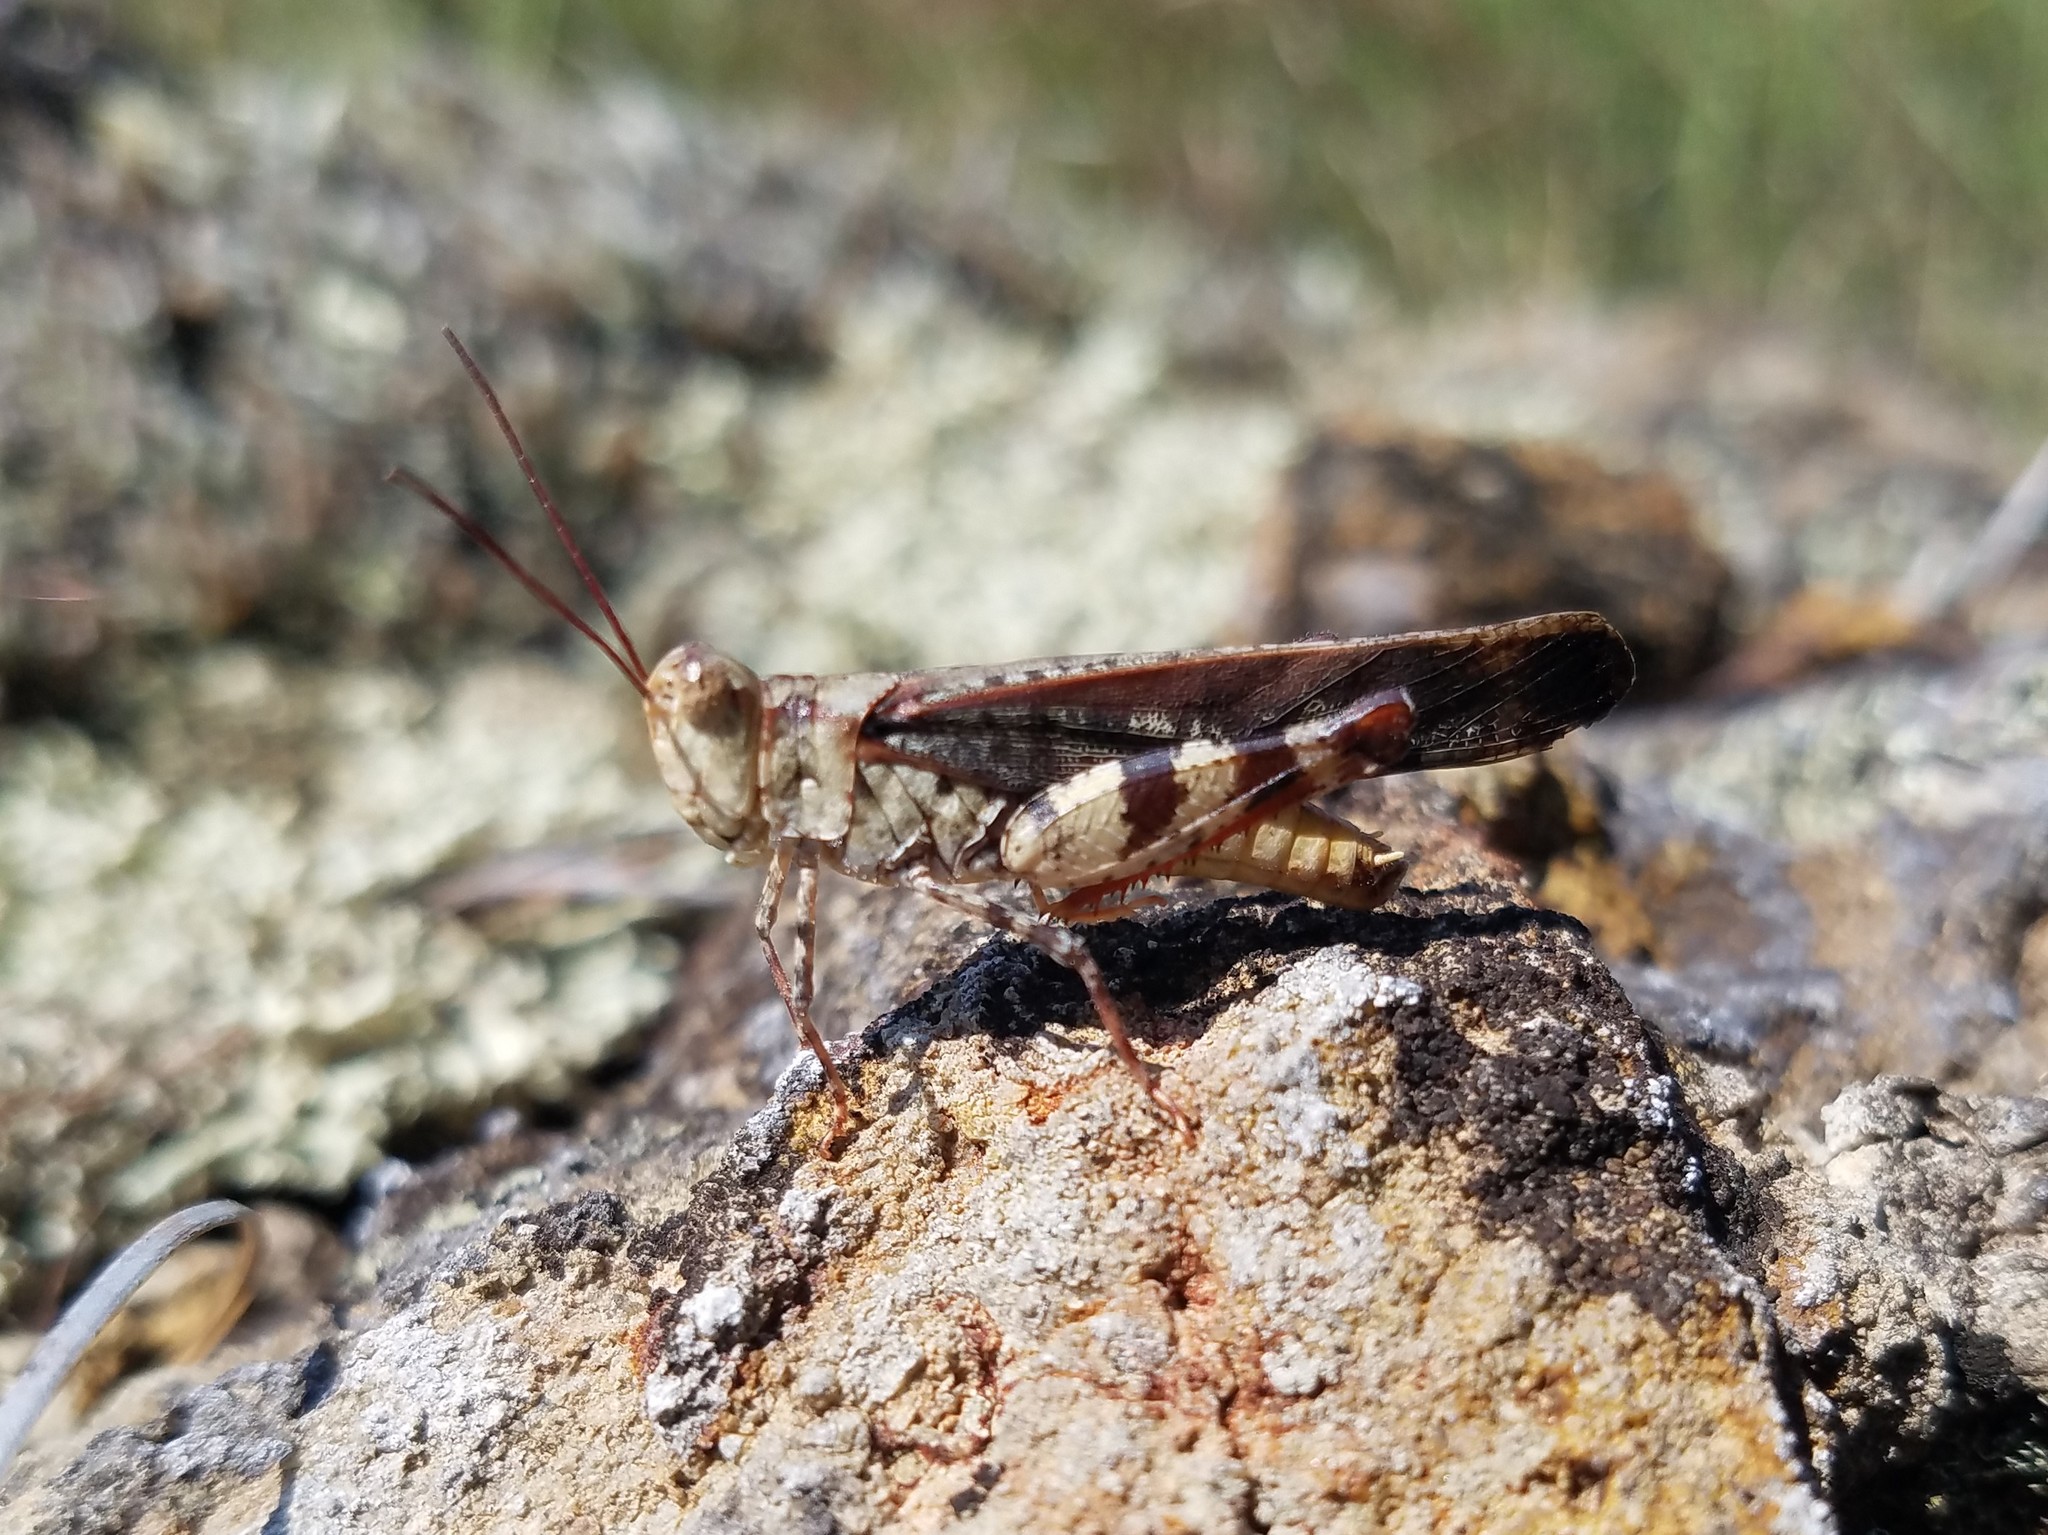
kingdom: Animalia
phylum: Arthropoda
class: Insecta
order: Orthoptera
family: Acrididae
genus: Spharagemon
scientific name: Spharagemon marmoratum
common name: Marbled grasshopper
